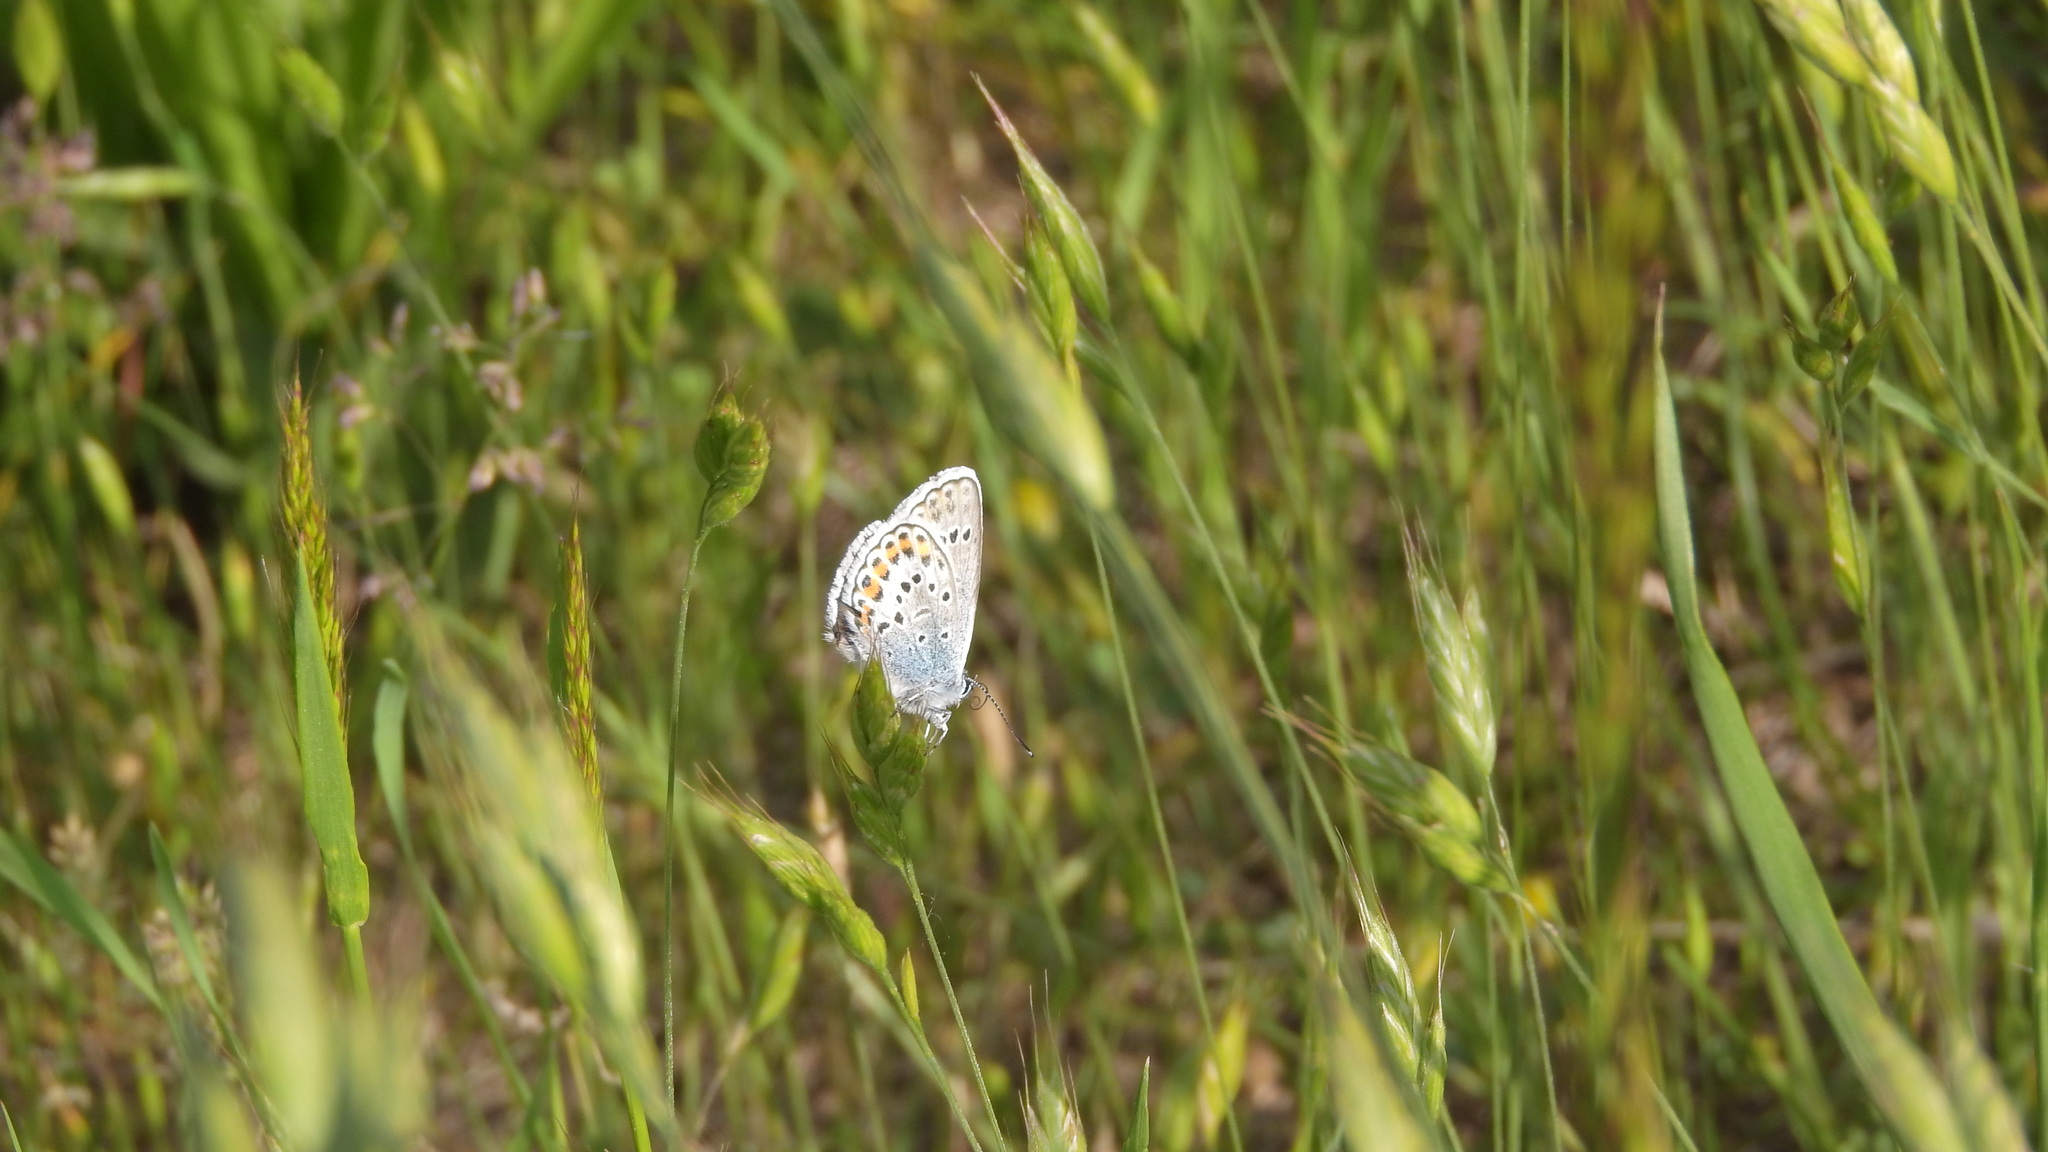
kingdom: Animalia
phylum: Arthropoda
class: Insecta
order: Lepidoptera
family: Lycaenidae
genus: Plebejus
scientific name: Plebejus argus
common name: Silver-studded blue
